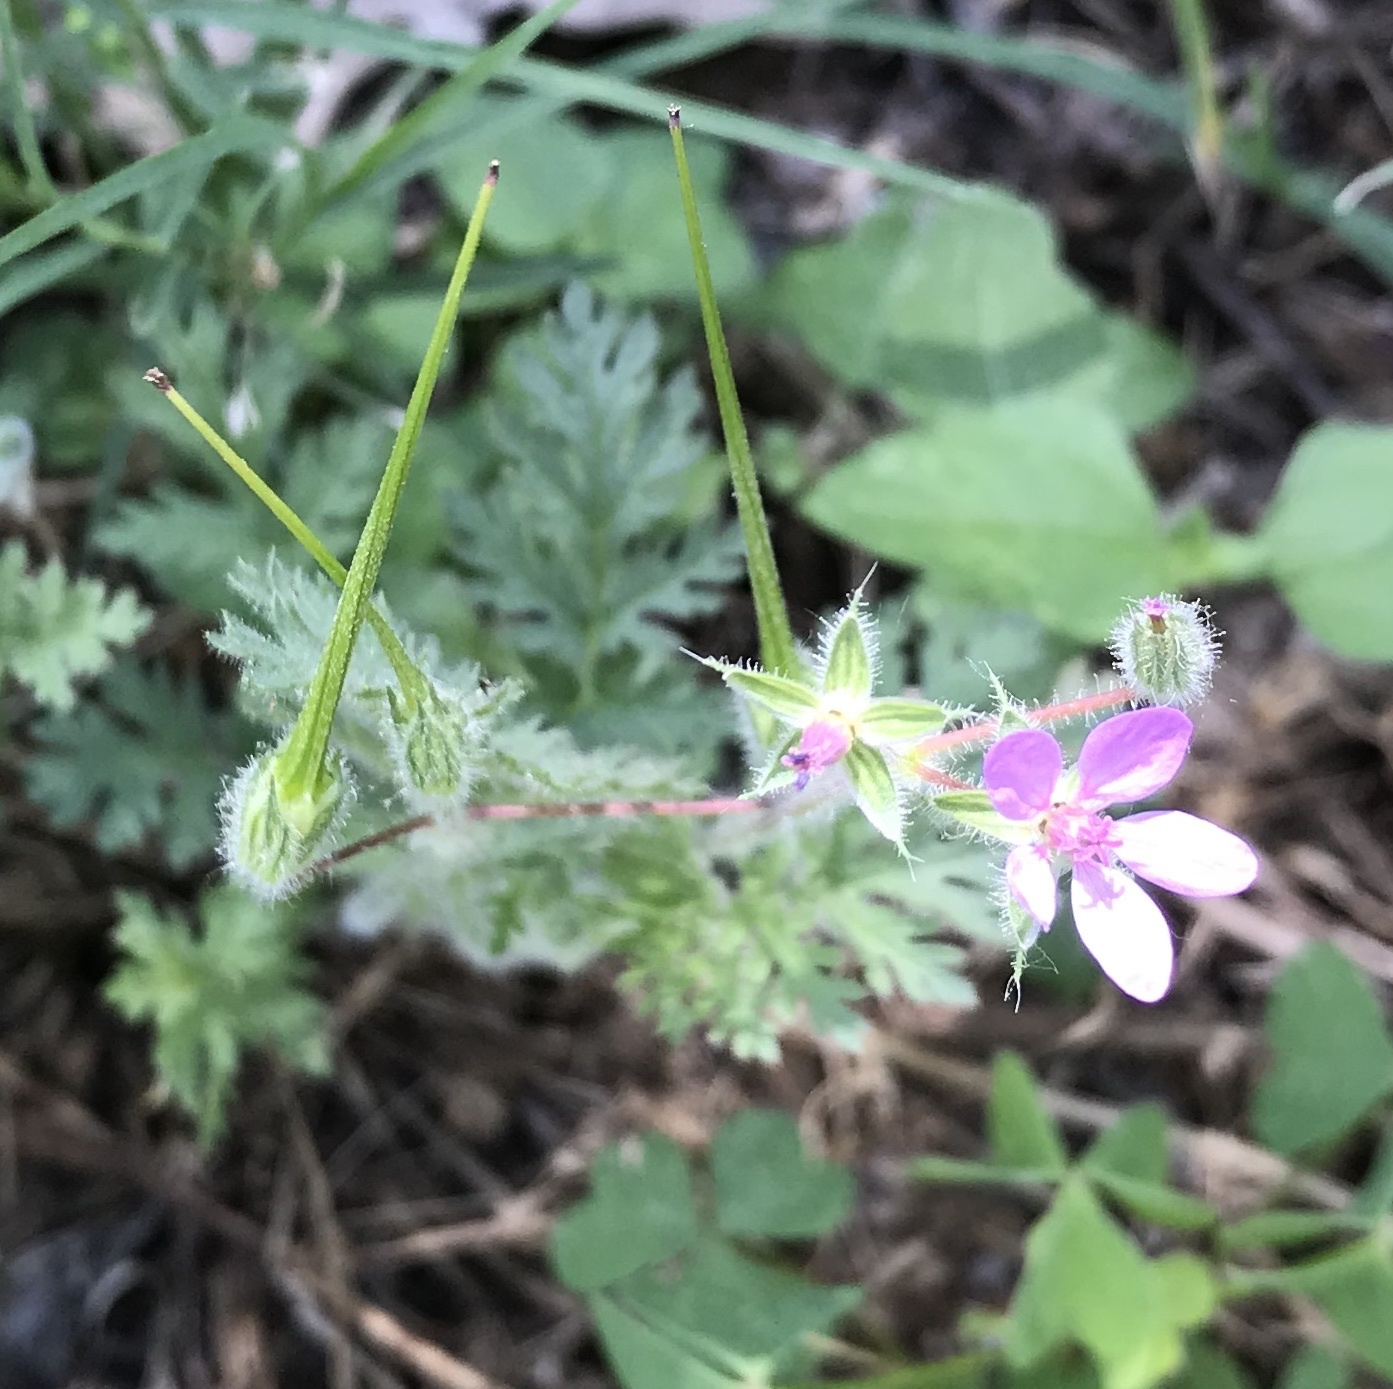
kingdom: Plantae
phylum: Tracheophyta
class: Magnoliopsida
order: Geraniales
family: Geraniaceae
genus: Erodium
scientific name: Erodium cicutarium
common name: Common stork's-bill
